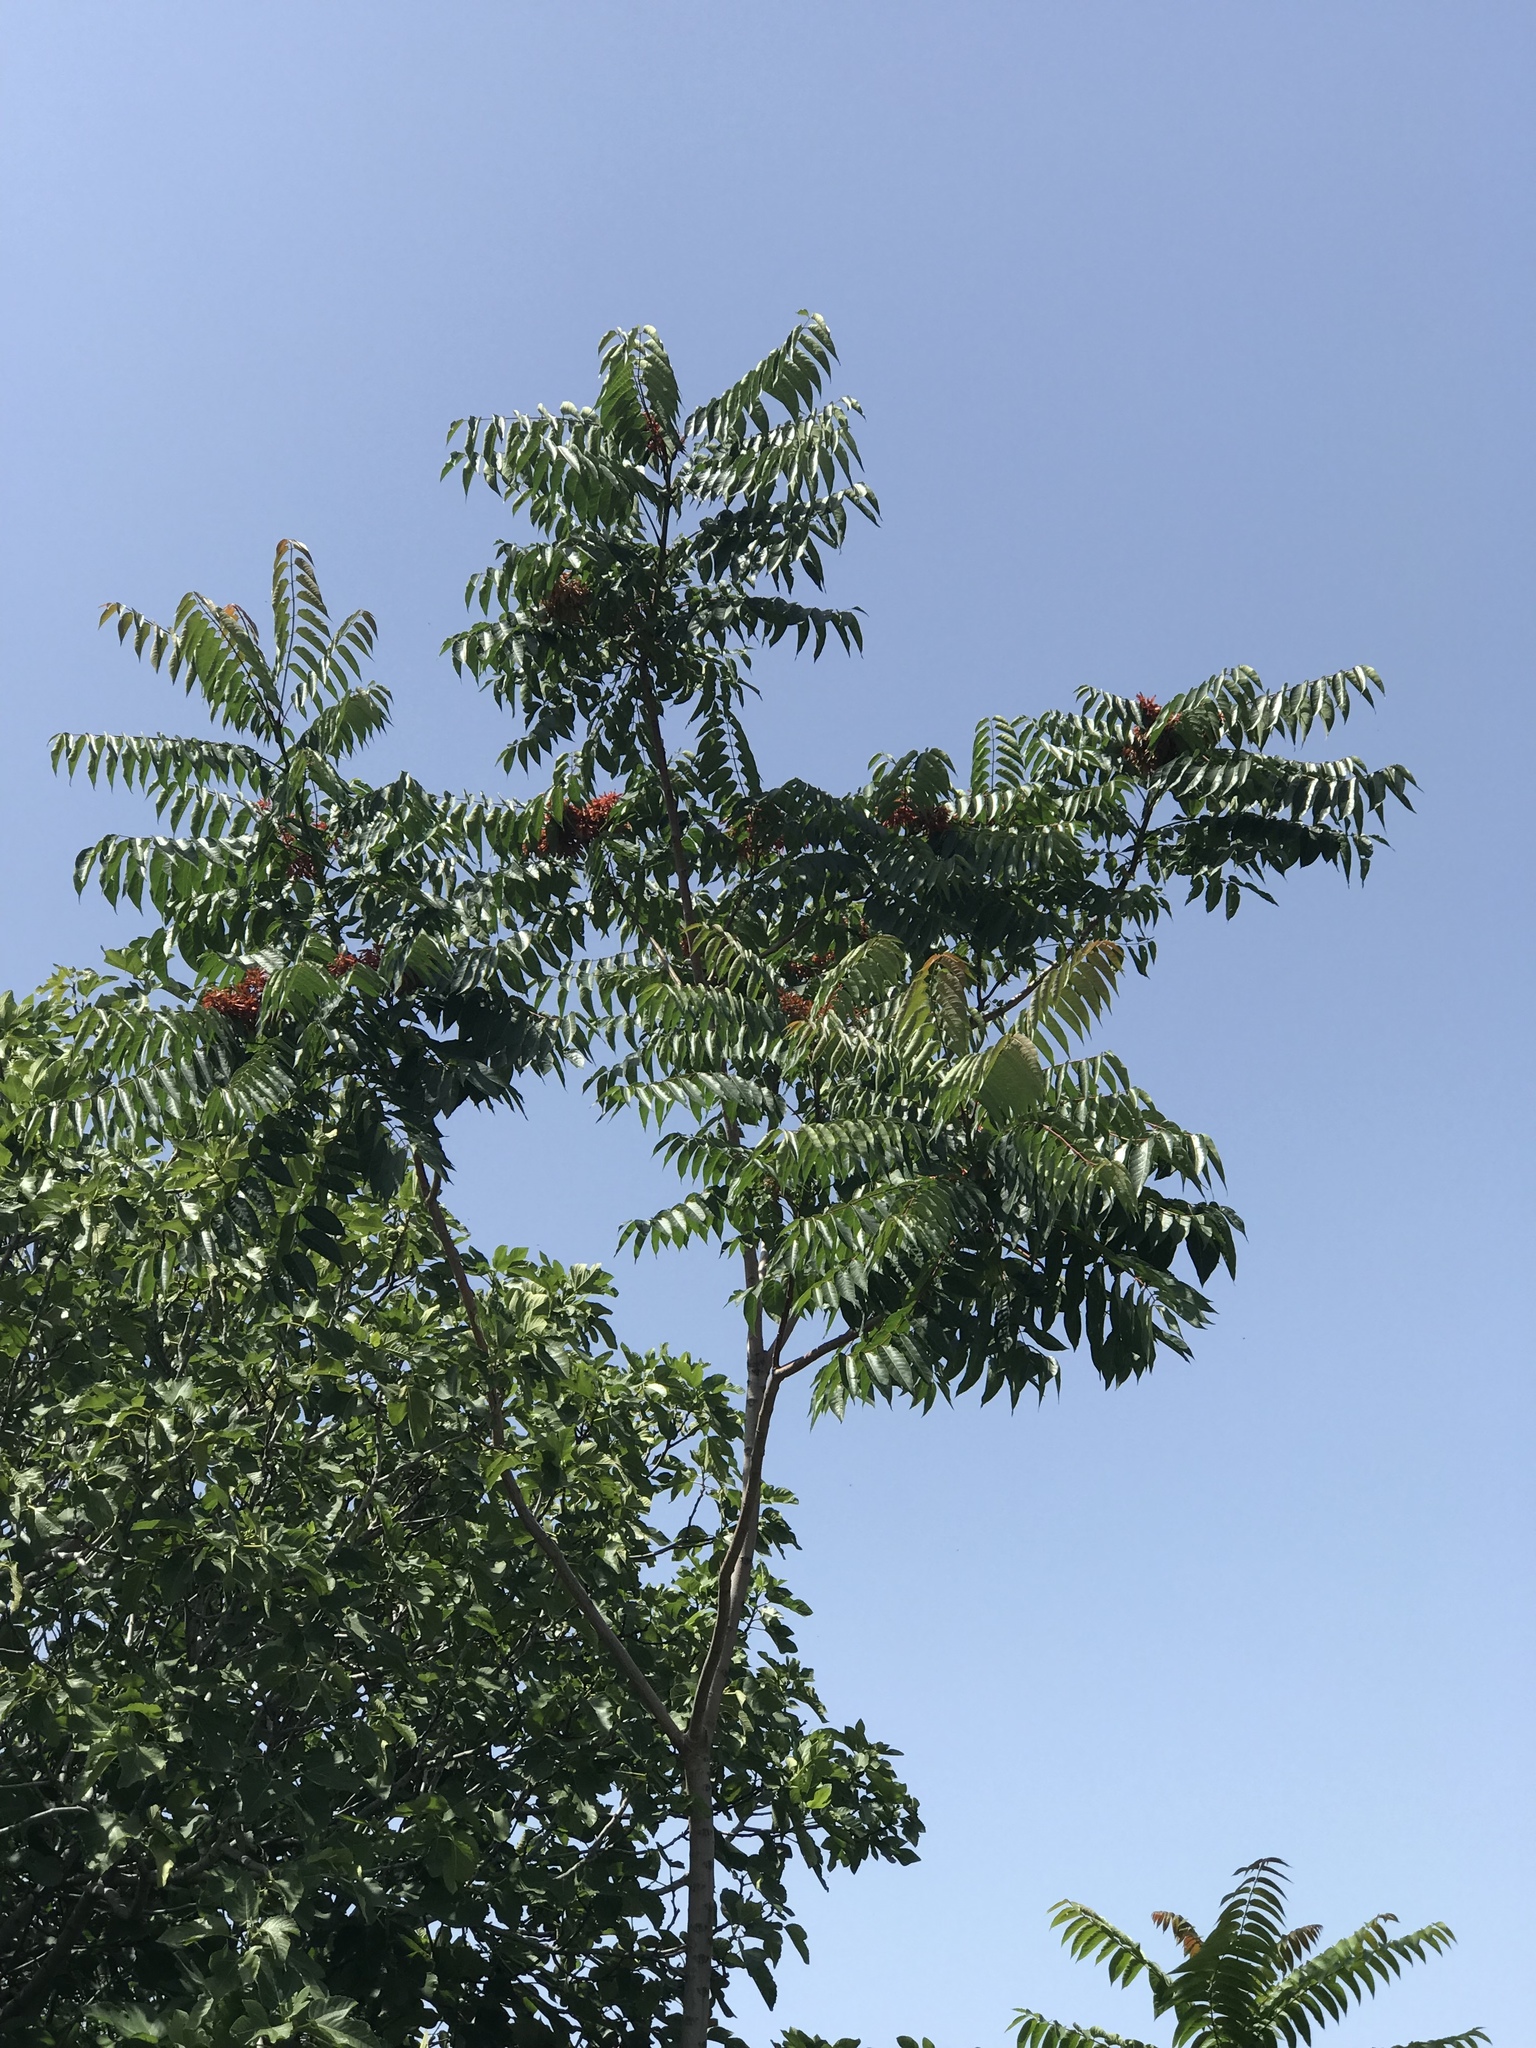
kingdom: Plantae
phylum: Tracheophyta
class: Magnoliopsida
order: Sapindales
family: Simaroubaceae
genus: Ailanthus
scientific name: Ailanthus altissima
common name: Tree-of-heaven
